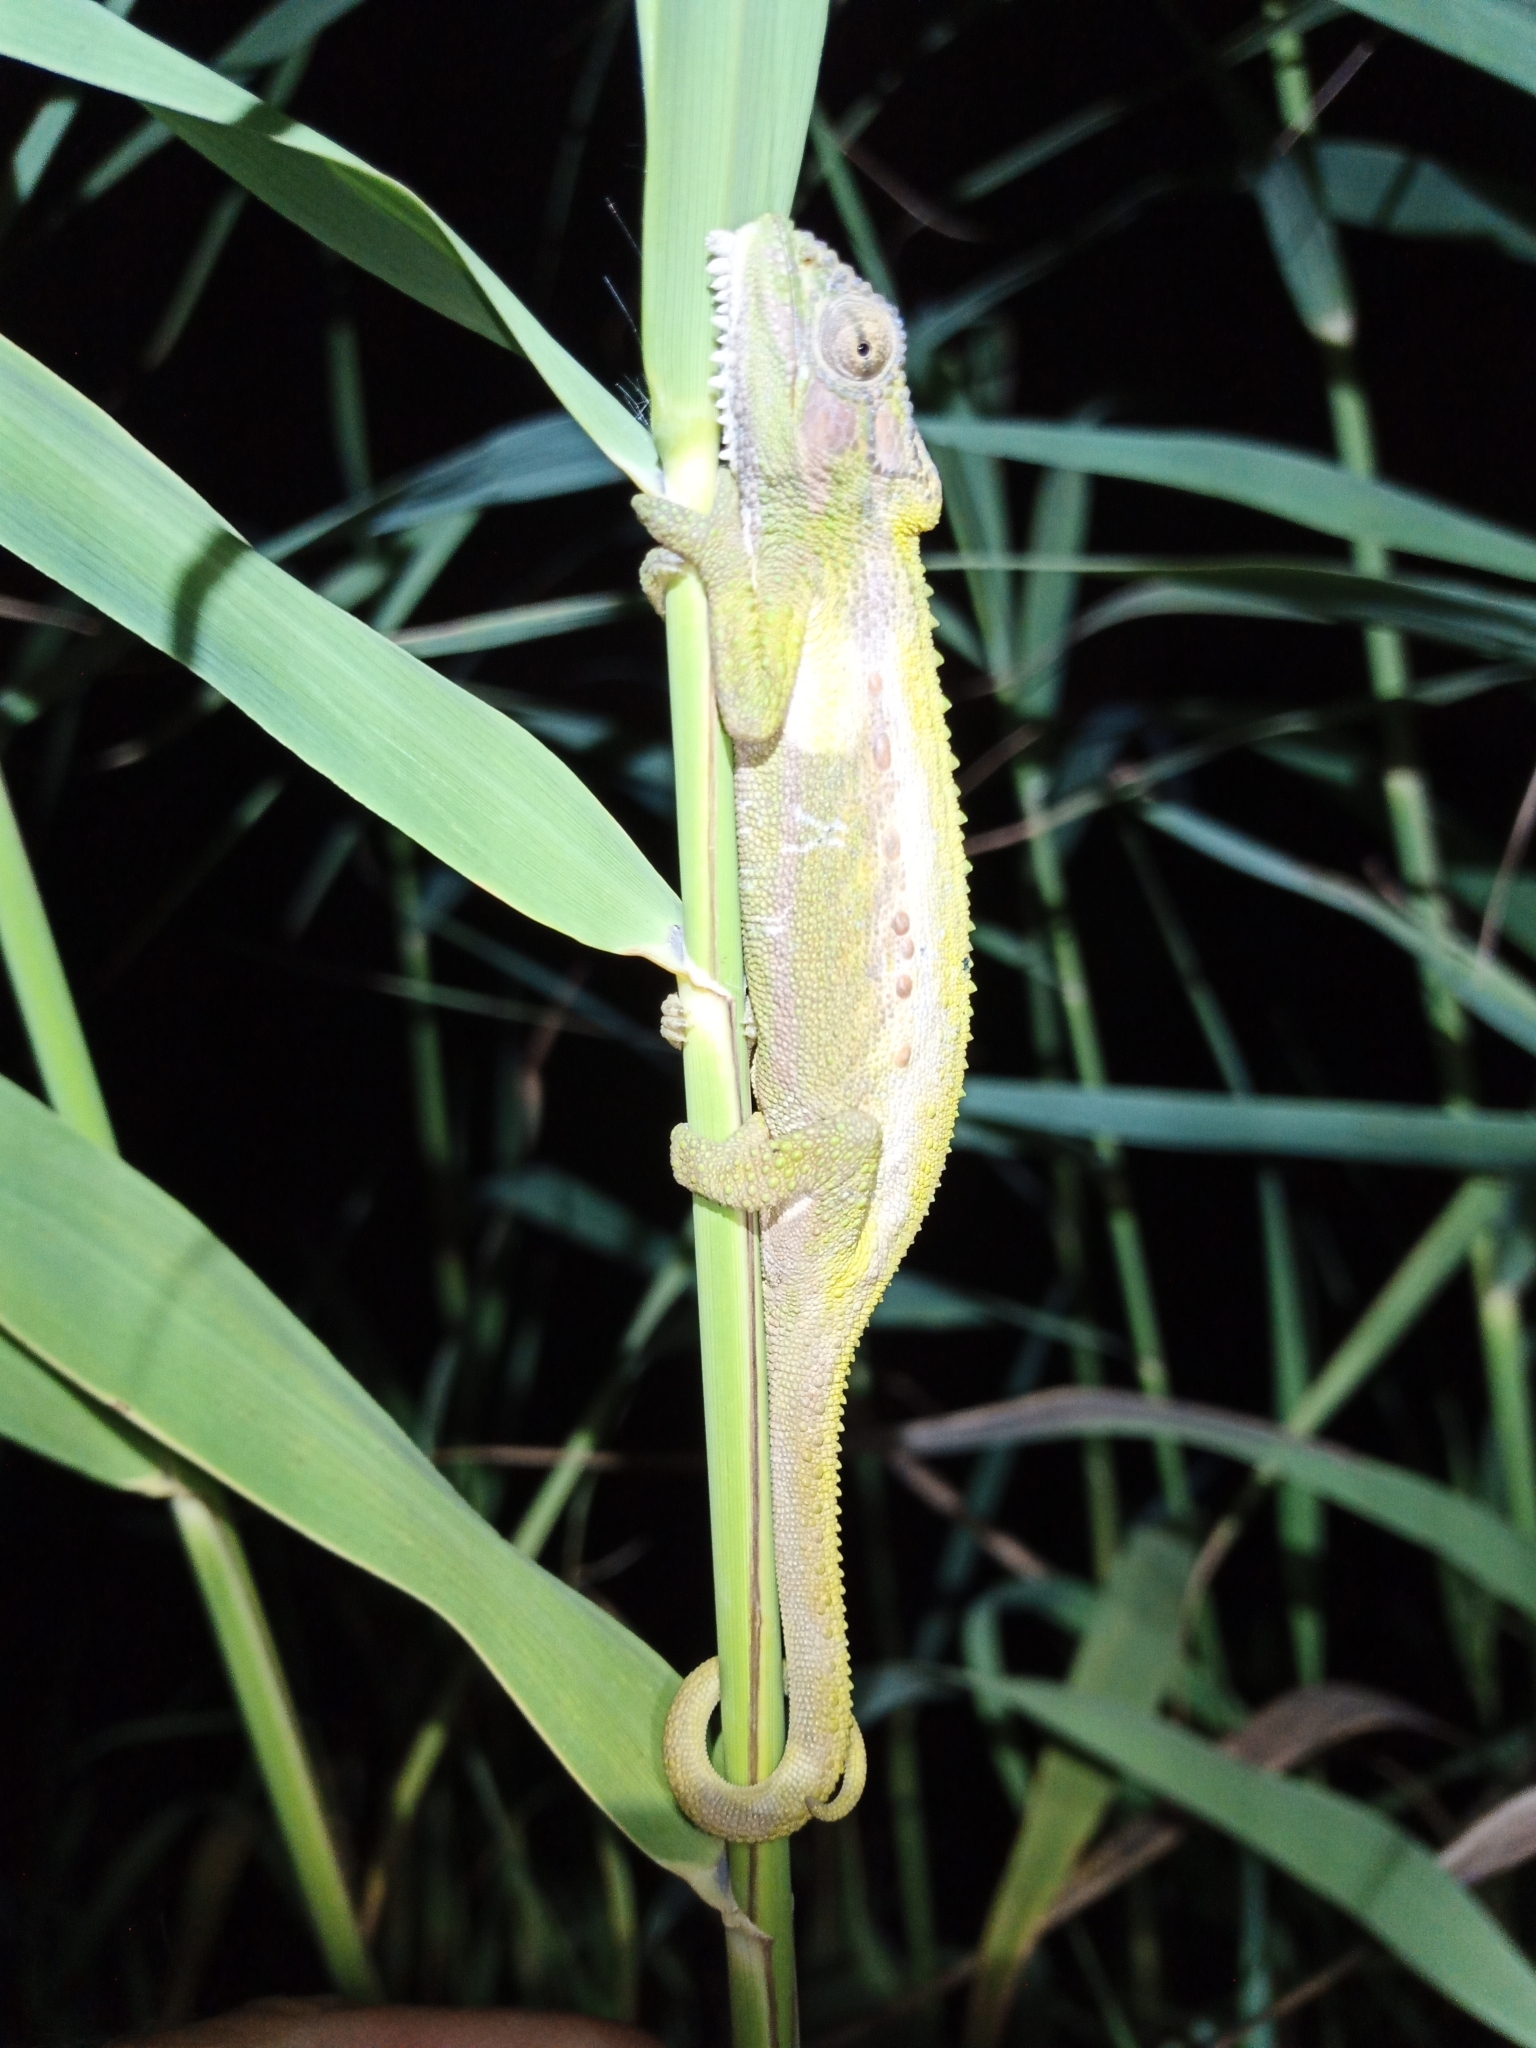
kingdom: Animalia
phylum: Chordata
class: Squamata
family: Chamaeleonidae
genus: Bradypodion
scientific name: Bradypodion pumilum
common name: Cape dwarf chameleon
